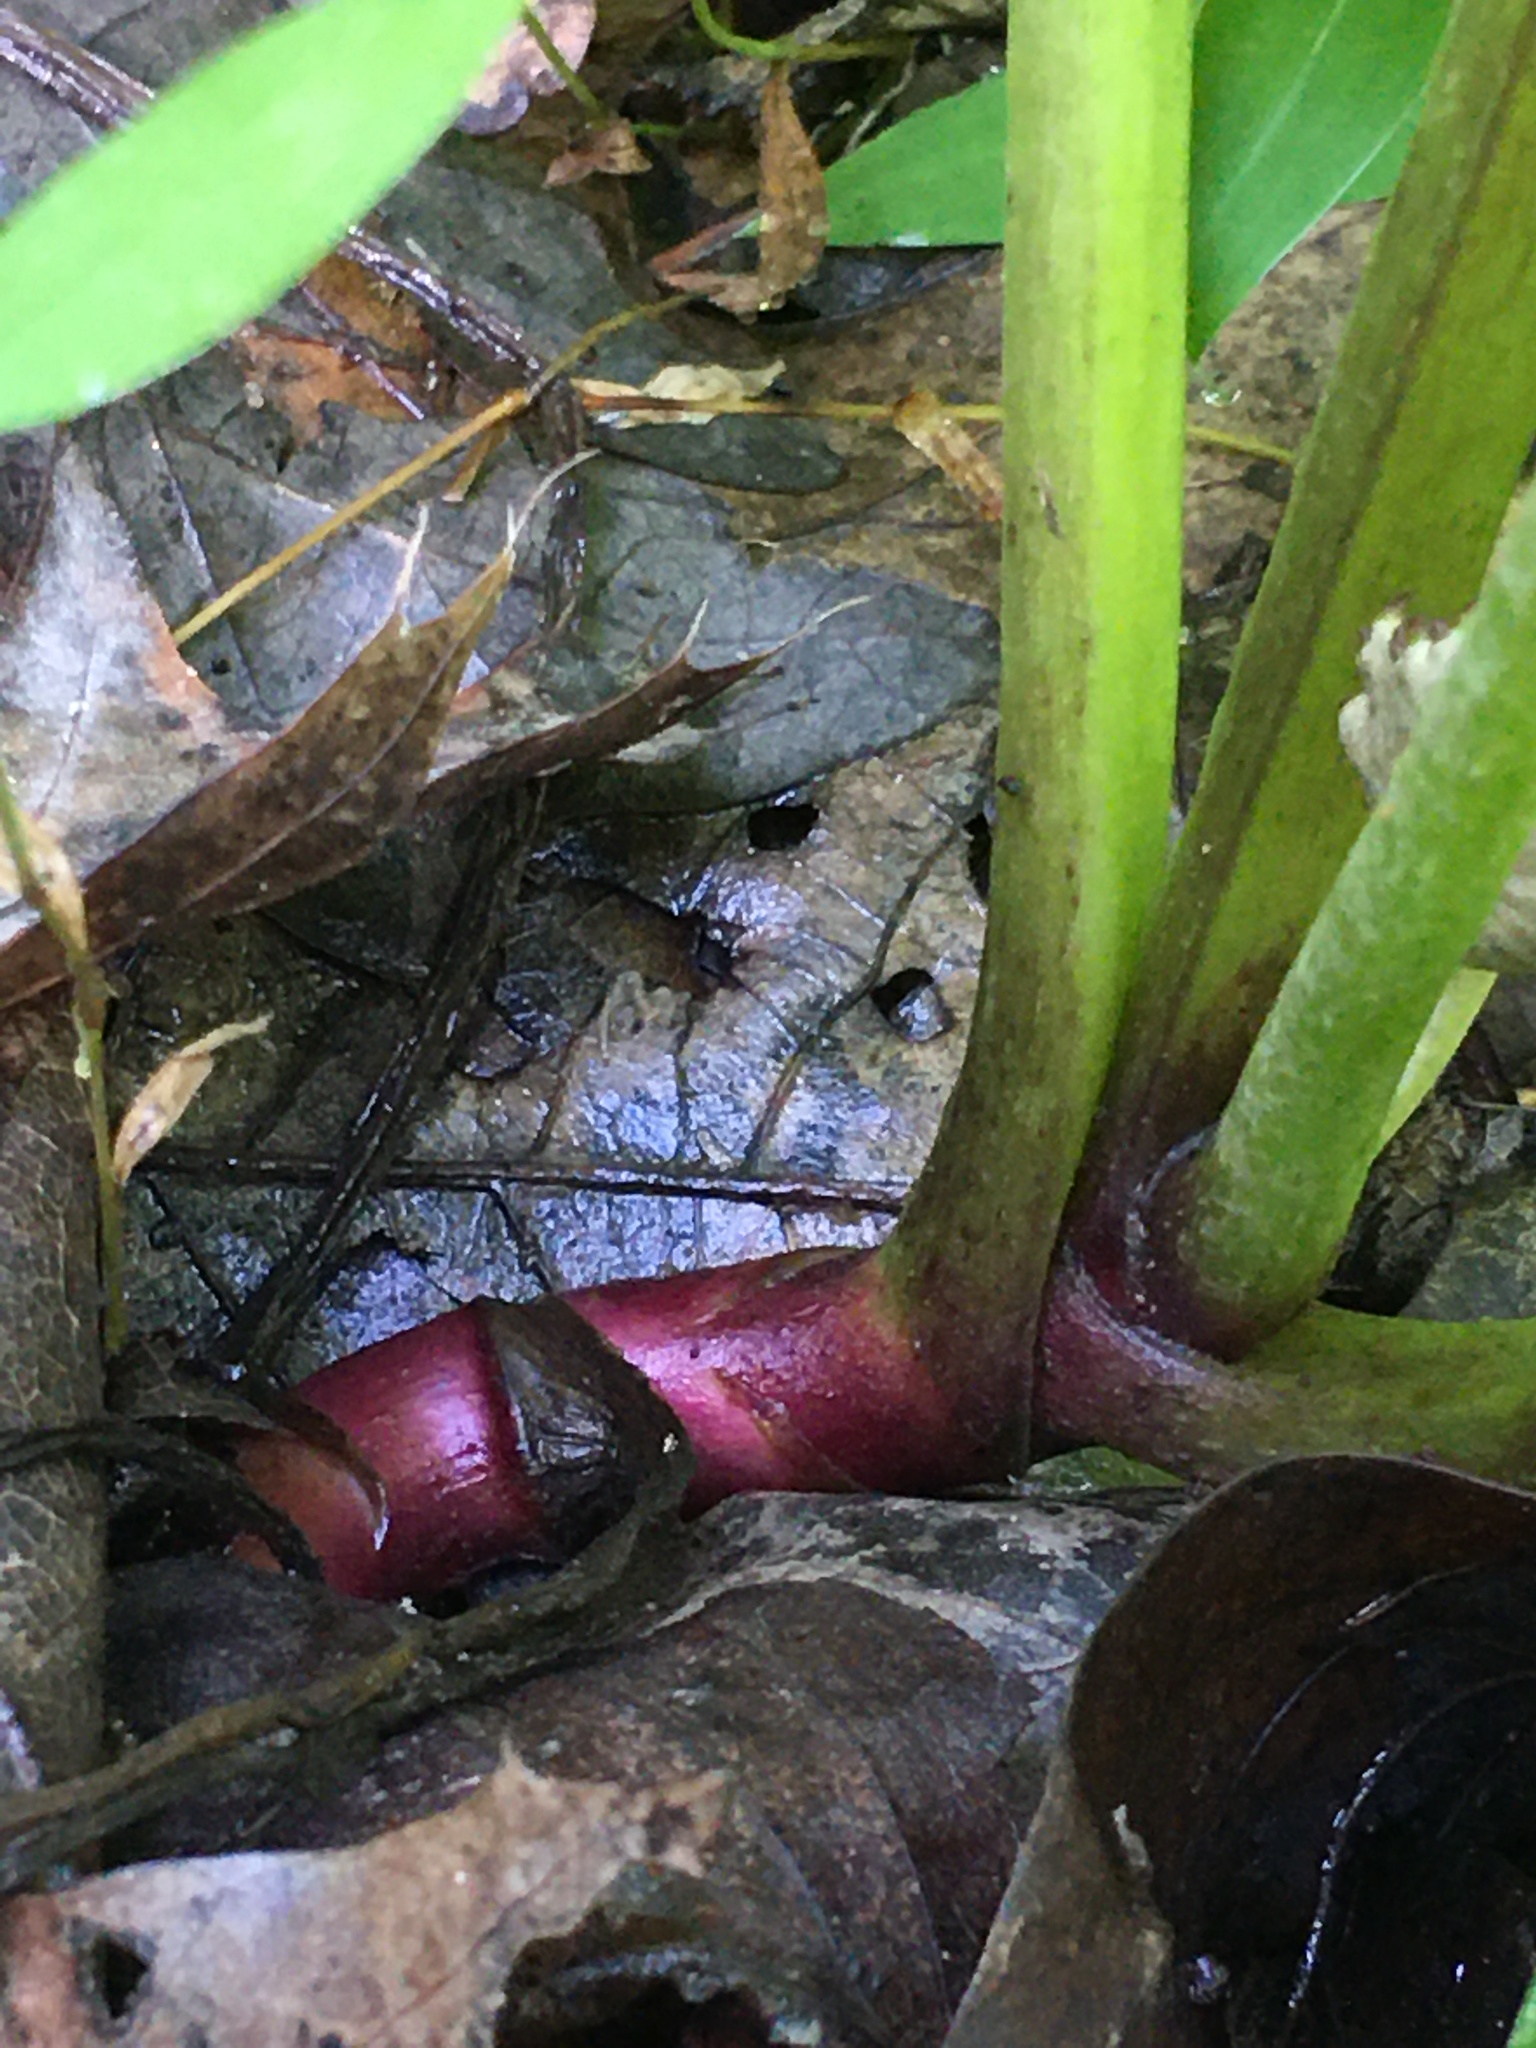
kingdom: Plantae
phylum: Tracheophyta
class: Magnoliopsida
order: Asterales
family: Asteraceae
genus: Tussilago
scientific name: Tussilago farfara
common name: Coltsfoot
